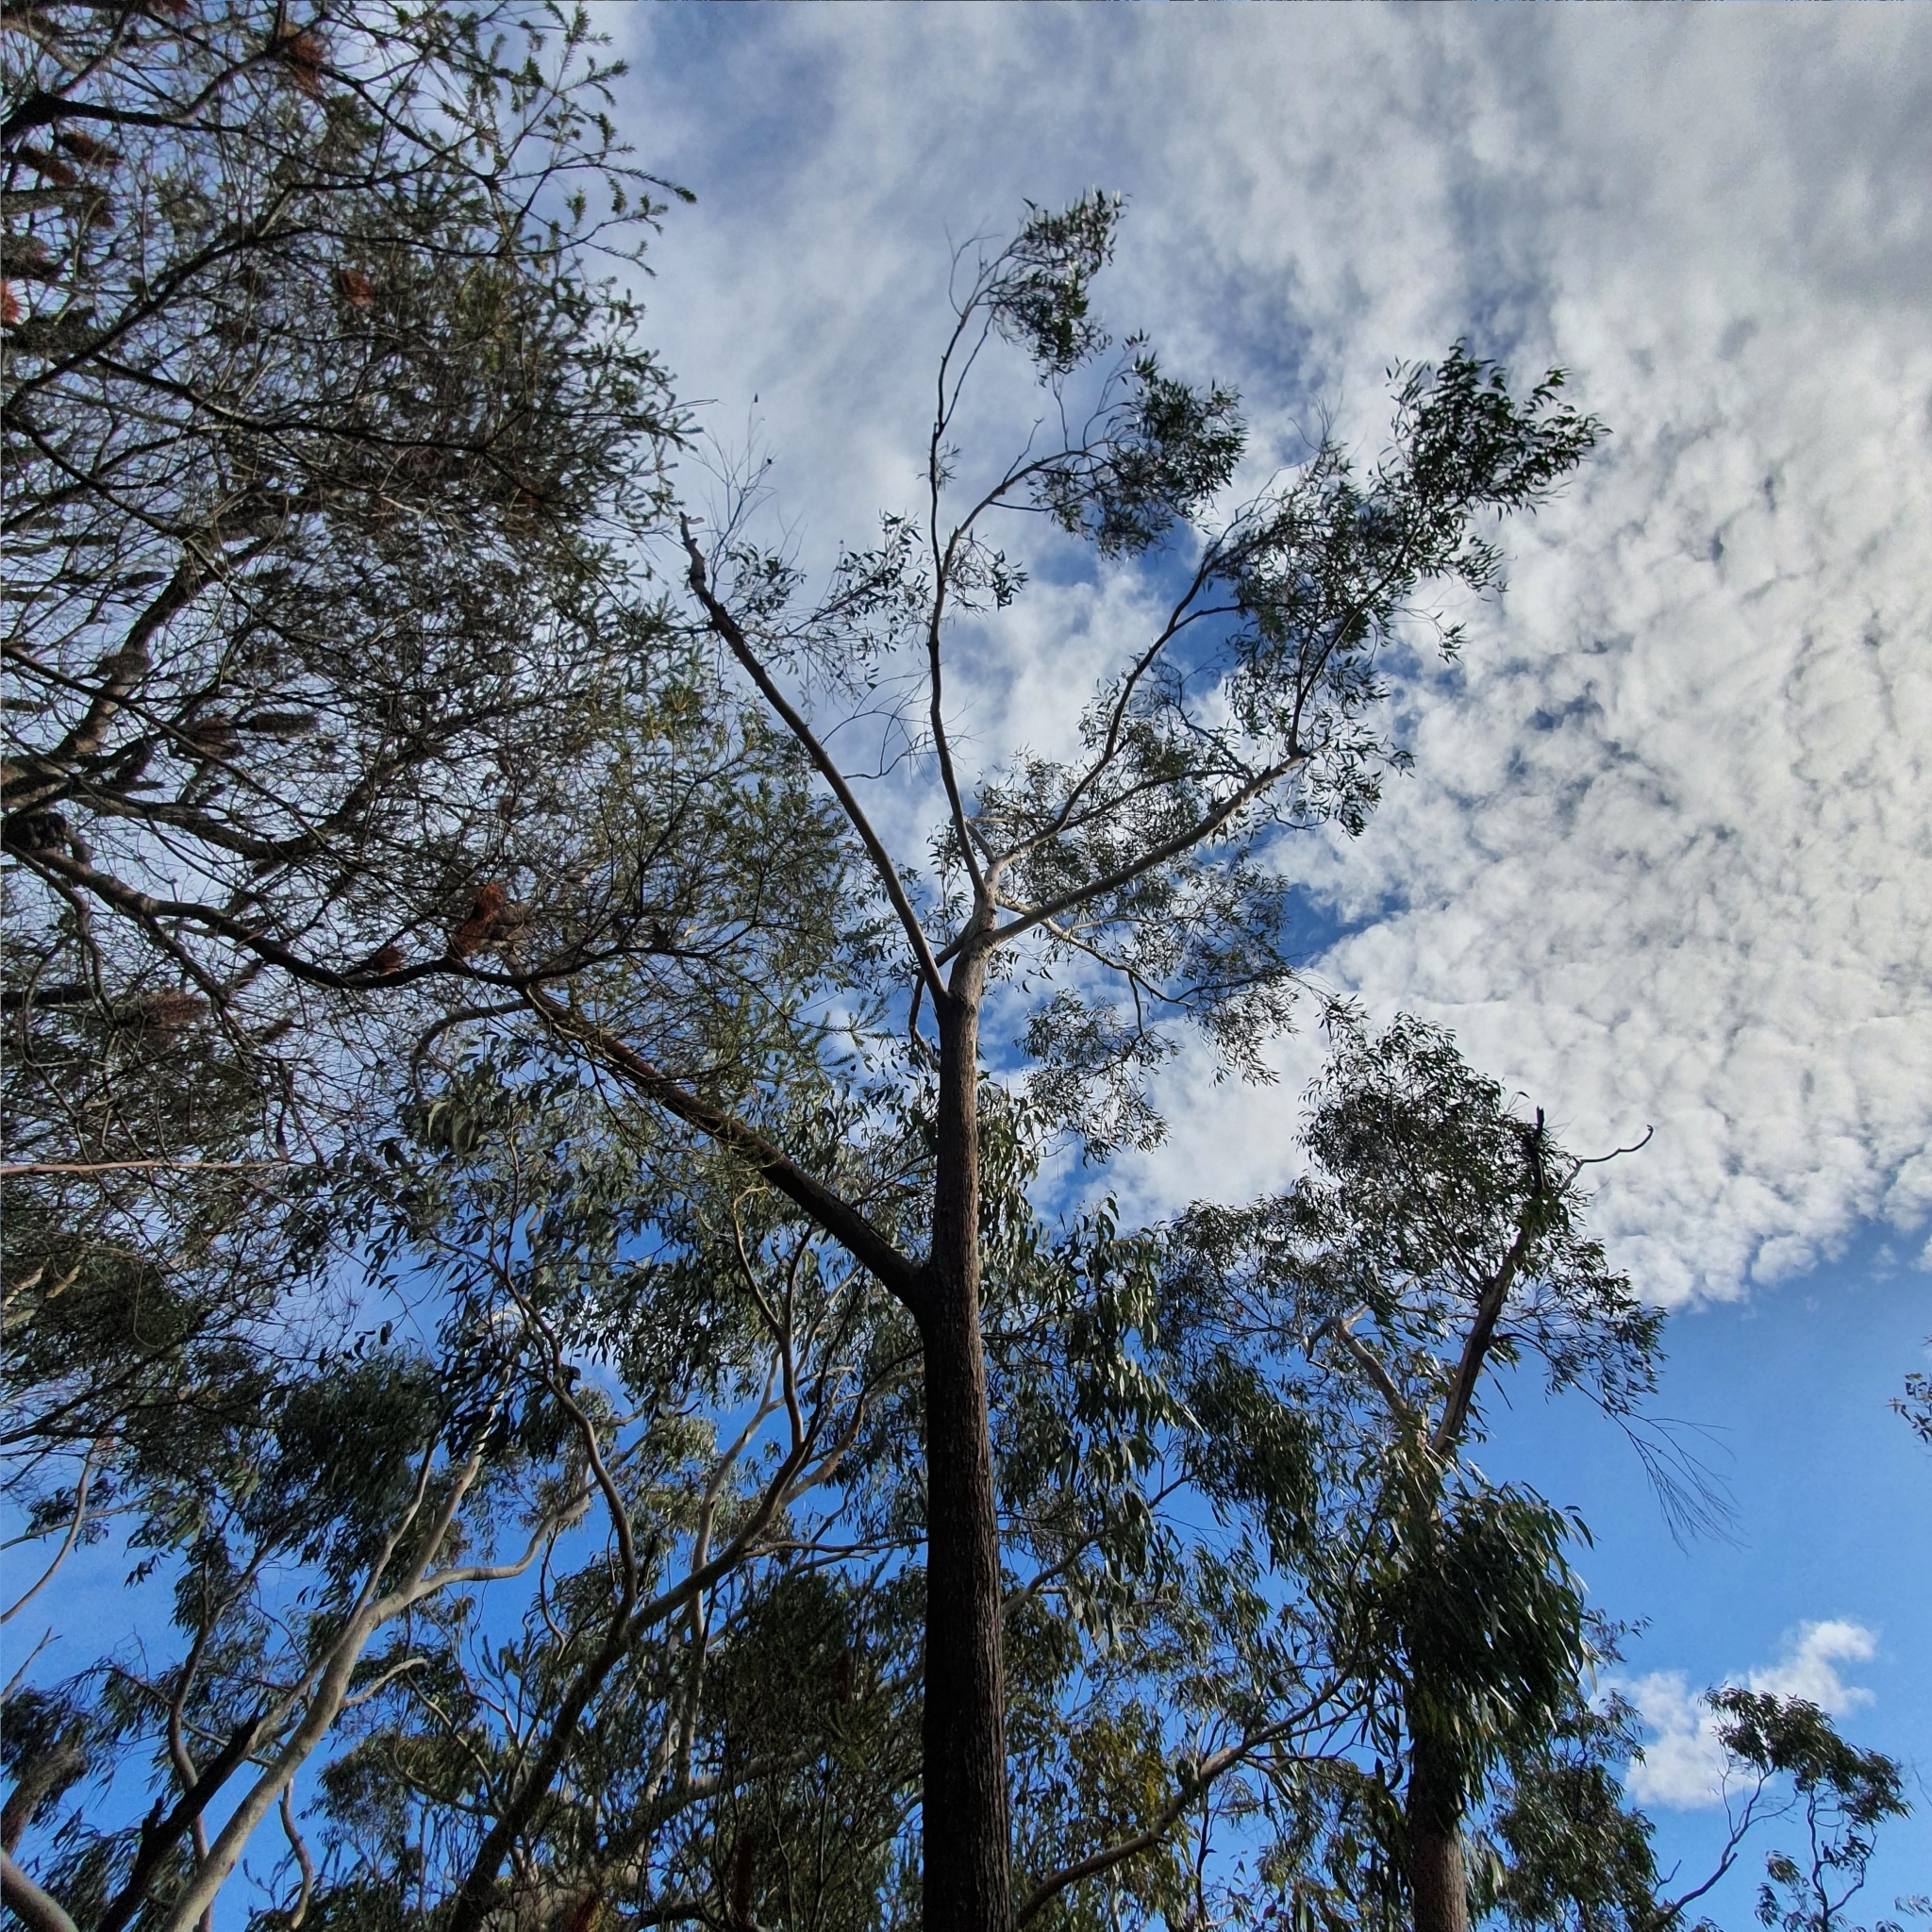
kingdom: Plantae
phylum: Tracheophyta
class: Magnoliopsida
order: Myrtales
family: Myrtaceae
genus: Eucalyptus
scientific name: Eucalyptus sieberi
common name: Black-ash
